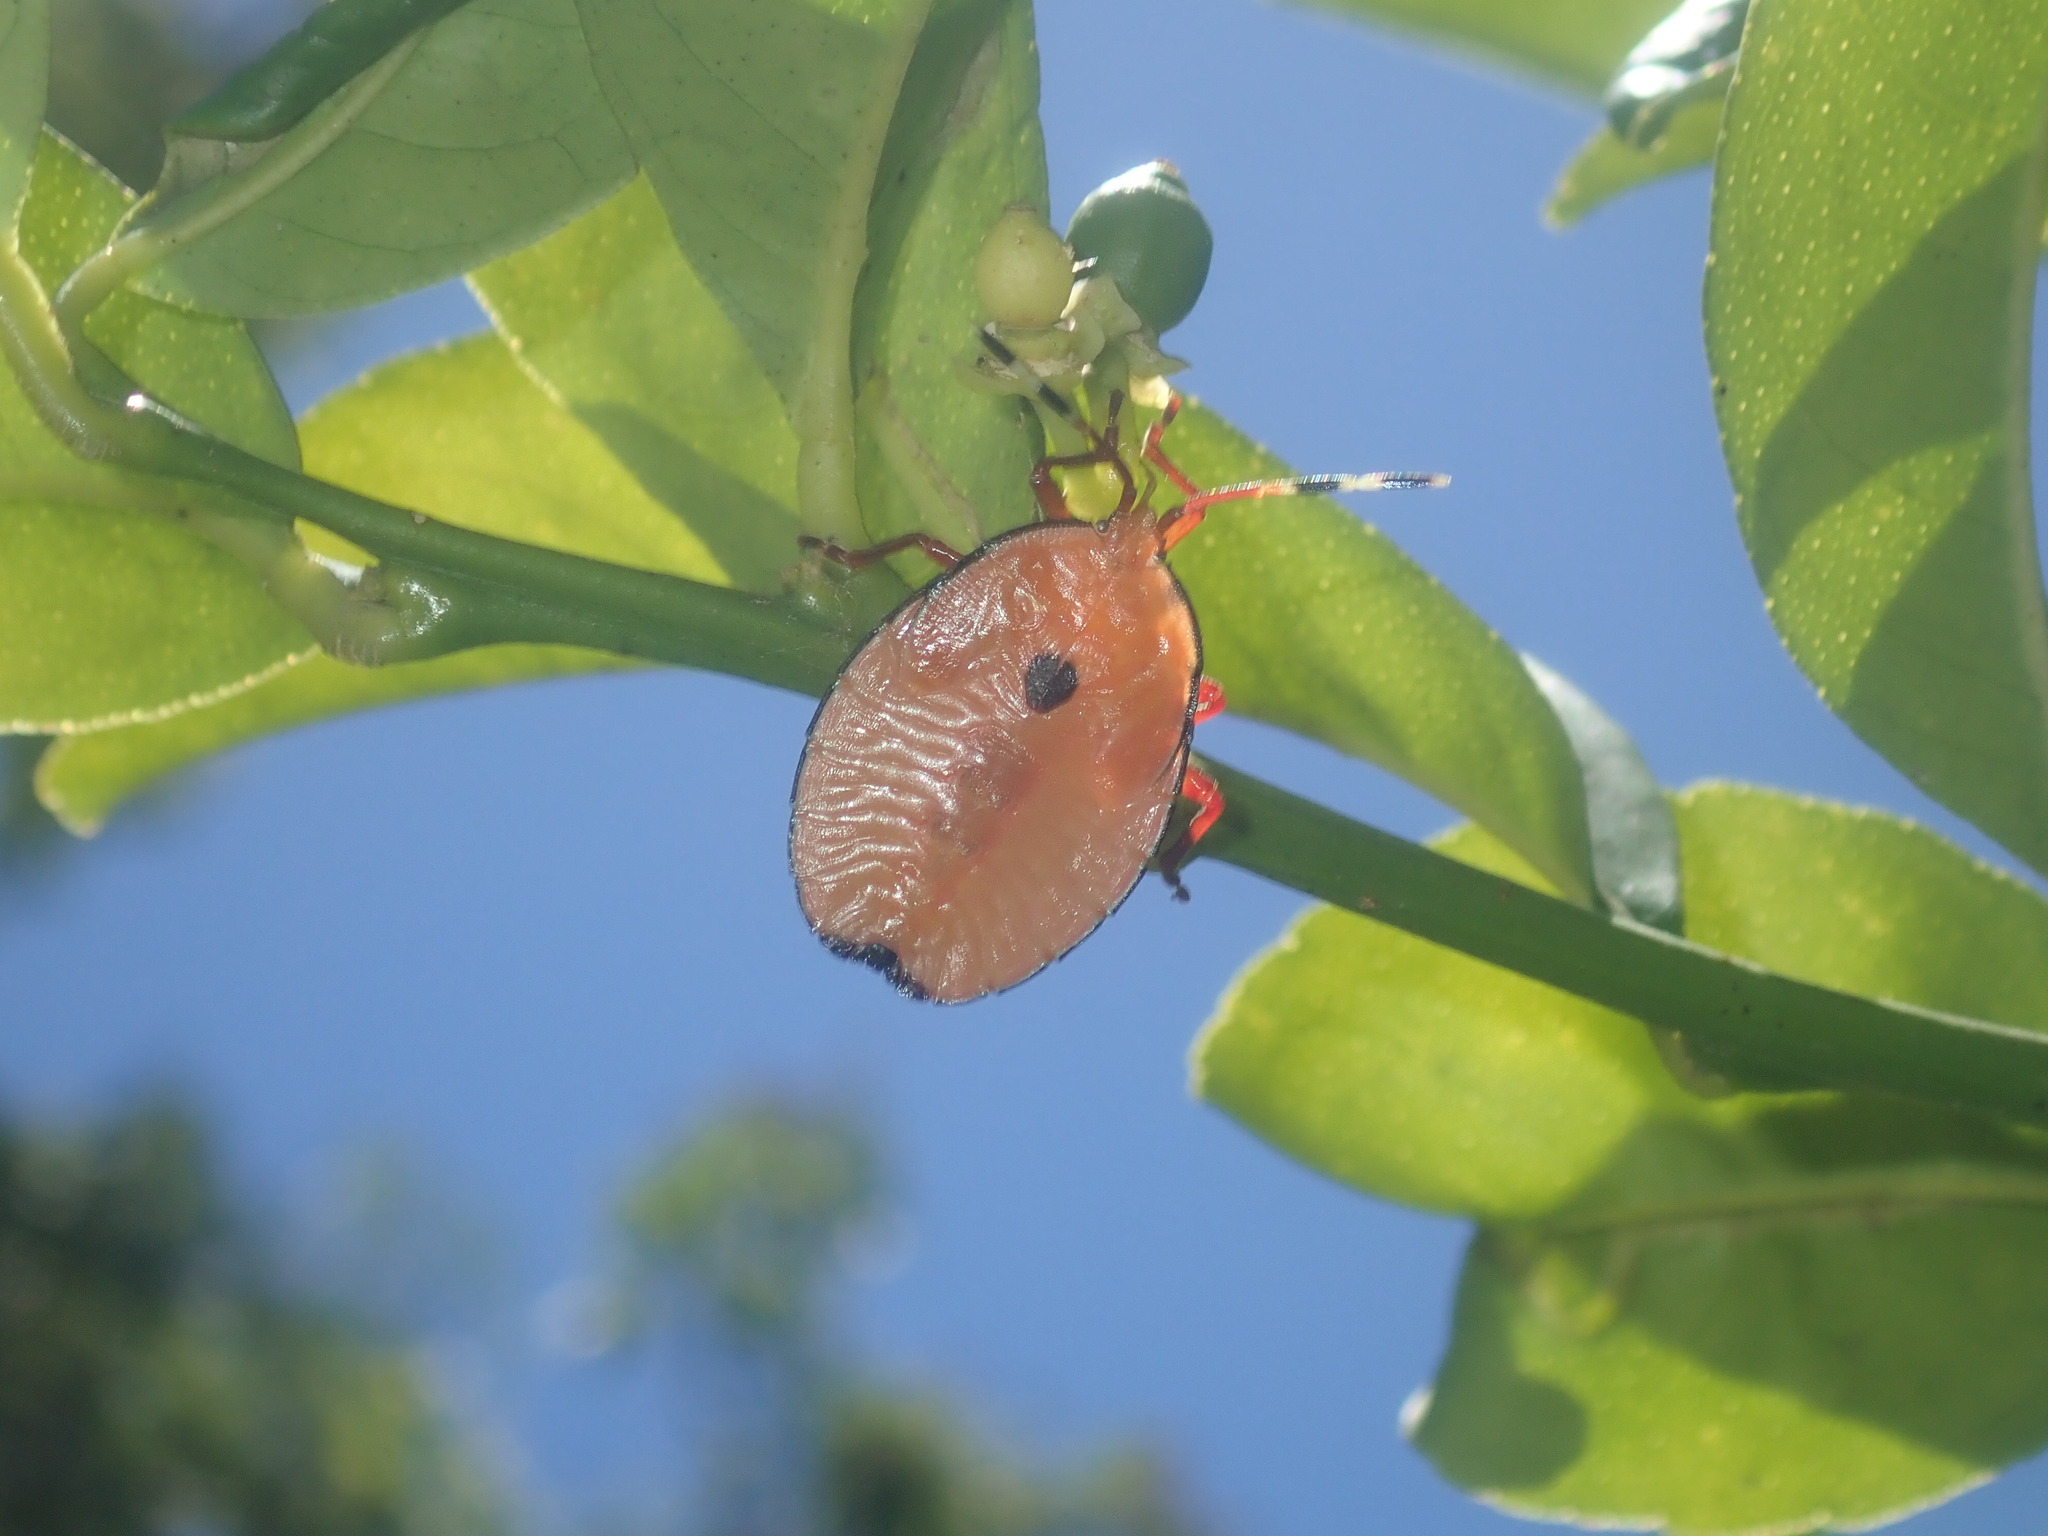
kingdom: Animalia
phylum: Arthropoda
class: Insecta
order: Hemiptera
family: Tessaratomidae
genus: Musgraveia
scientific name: Musgraveia sulciventris
